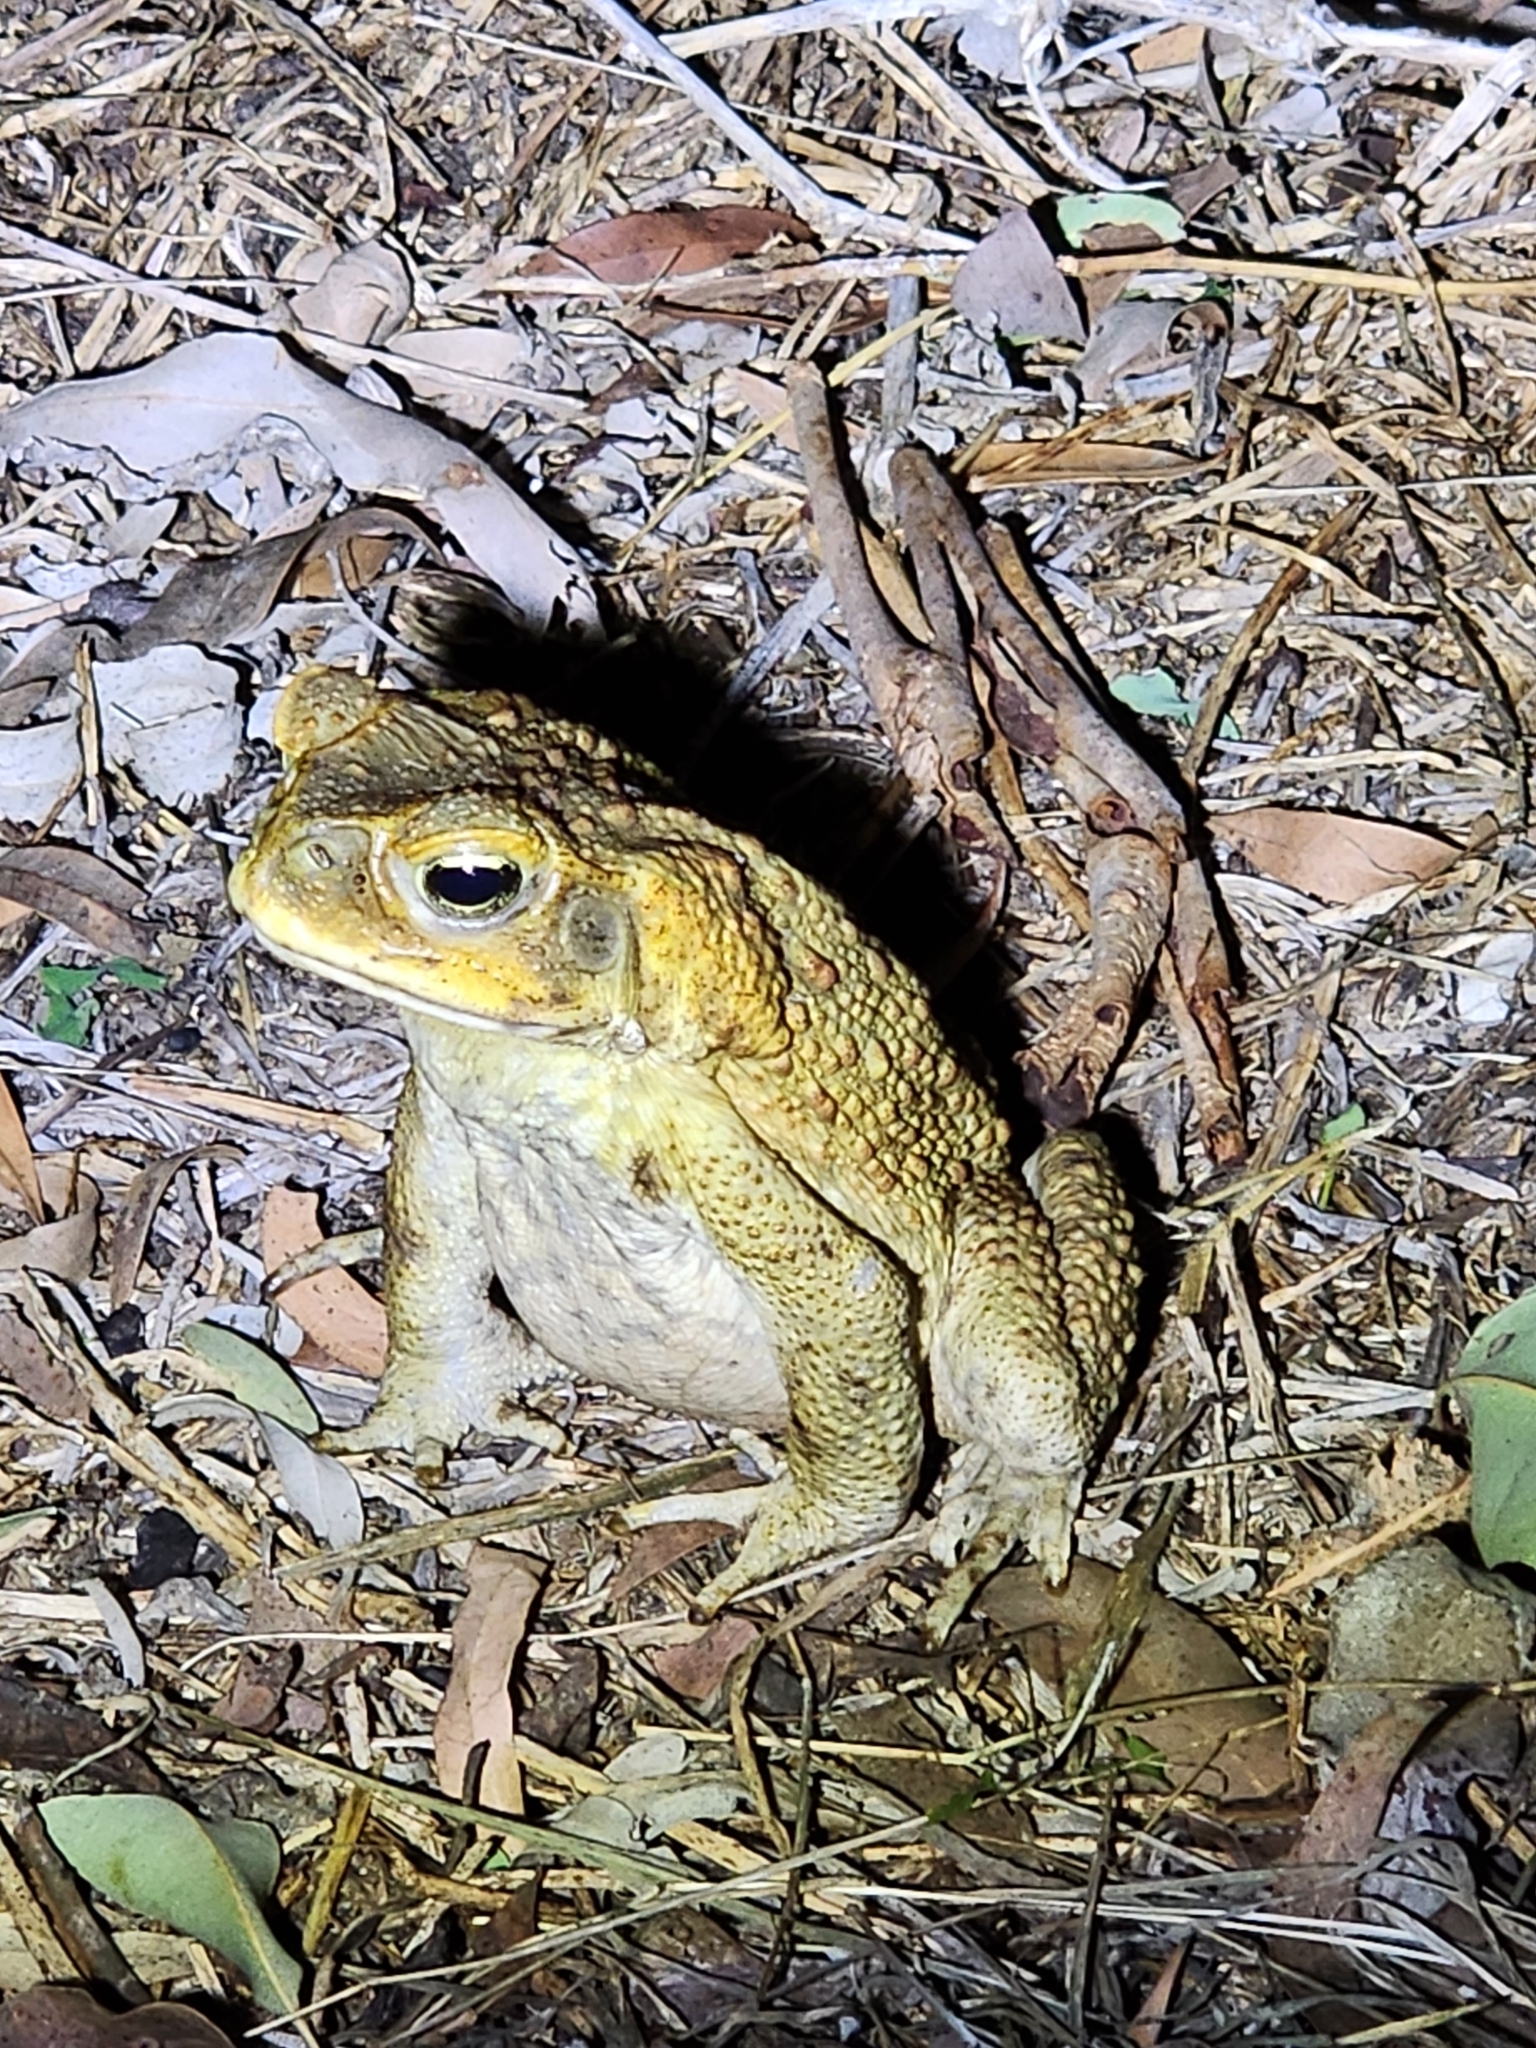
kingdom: Animalia
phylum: Chordata
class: Amphibia
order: Anura
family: Bufonidae
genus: Rhinella
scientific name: Rhinella marina
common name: Cane toad
